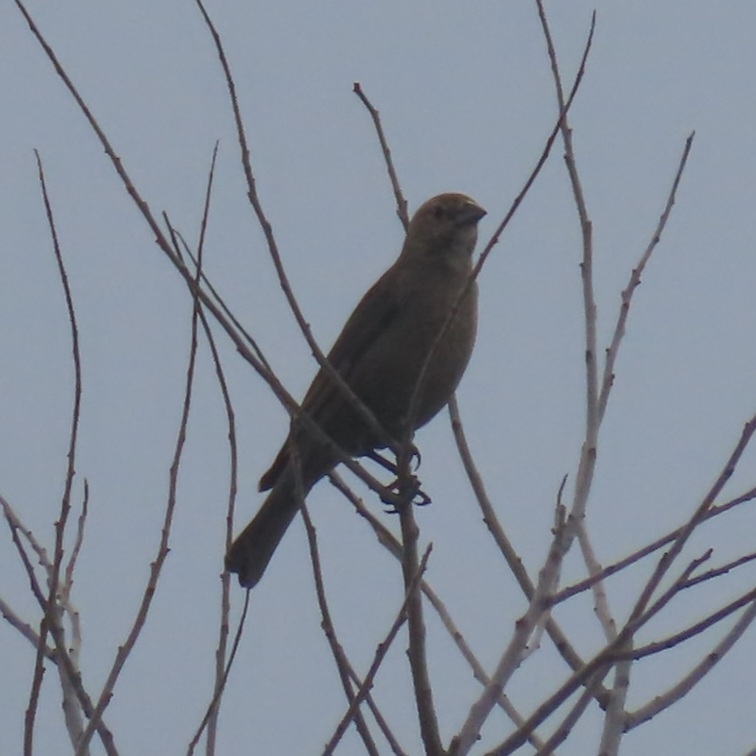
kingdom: Animalia
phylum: Chordata
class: Aves
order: Passeriformes
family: Icteridae
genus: Molothrus
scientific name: Molothrus ater
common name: Brown-headed cowbird
